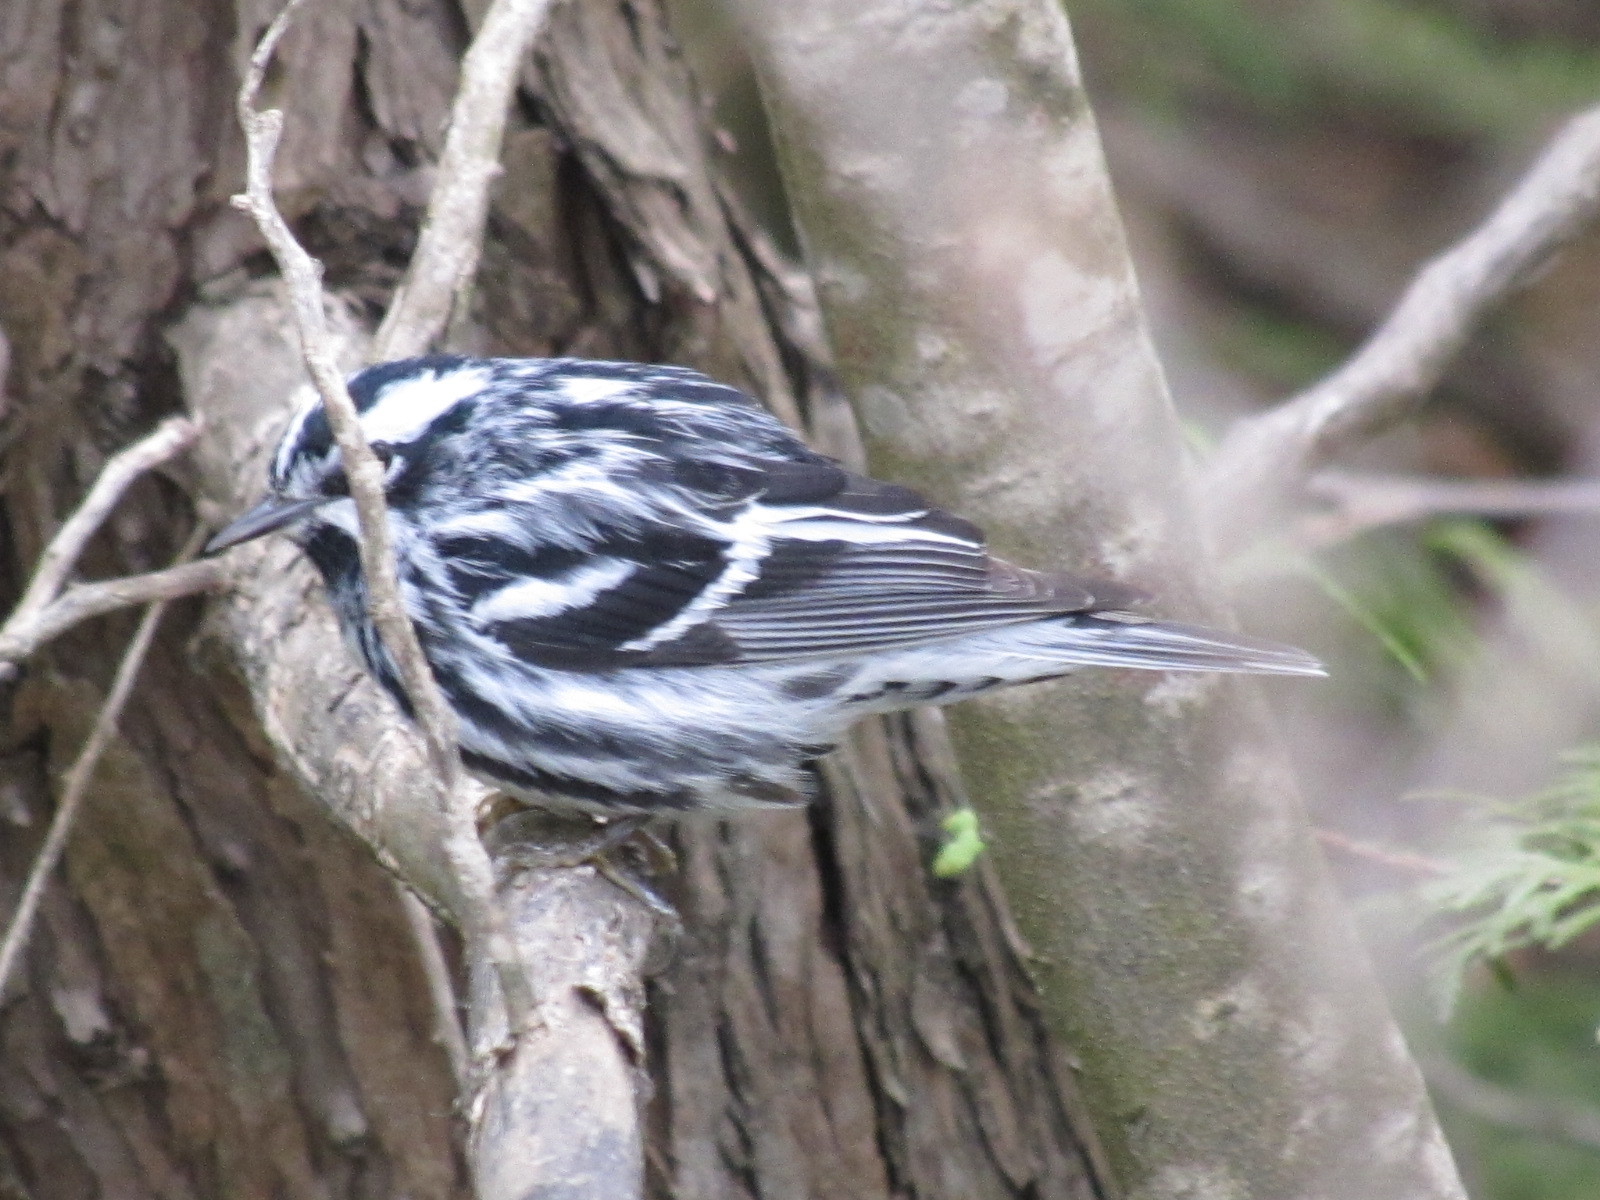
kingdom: Animalia
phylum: Chordata
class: Aves
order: Passeriformes
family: Parulidae
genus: Mniotilta
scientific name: Mniotilta varia
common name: Black-and-white warbler
